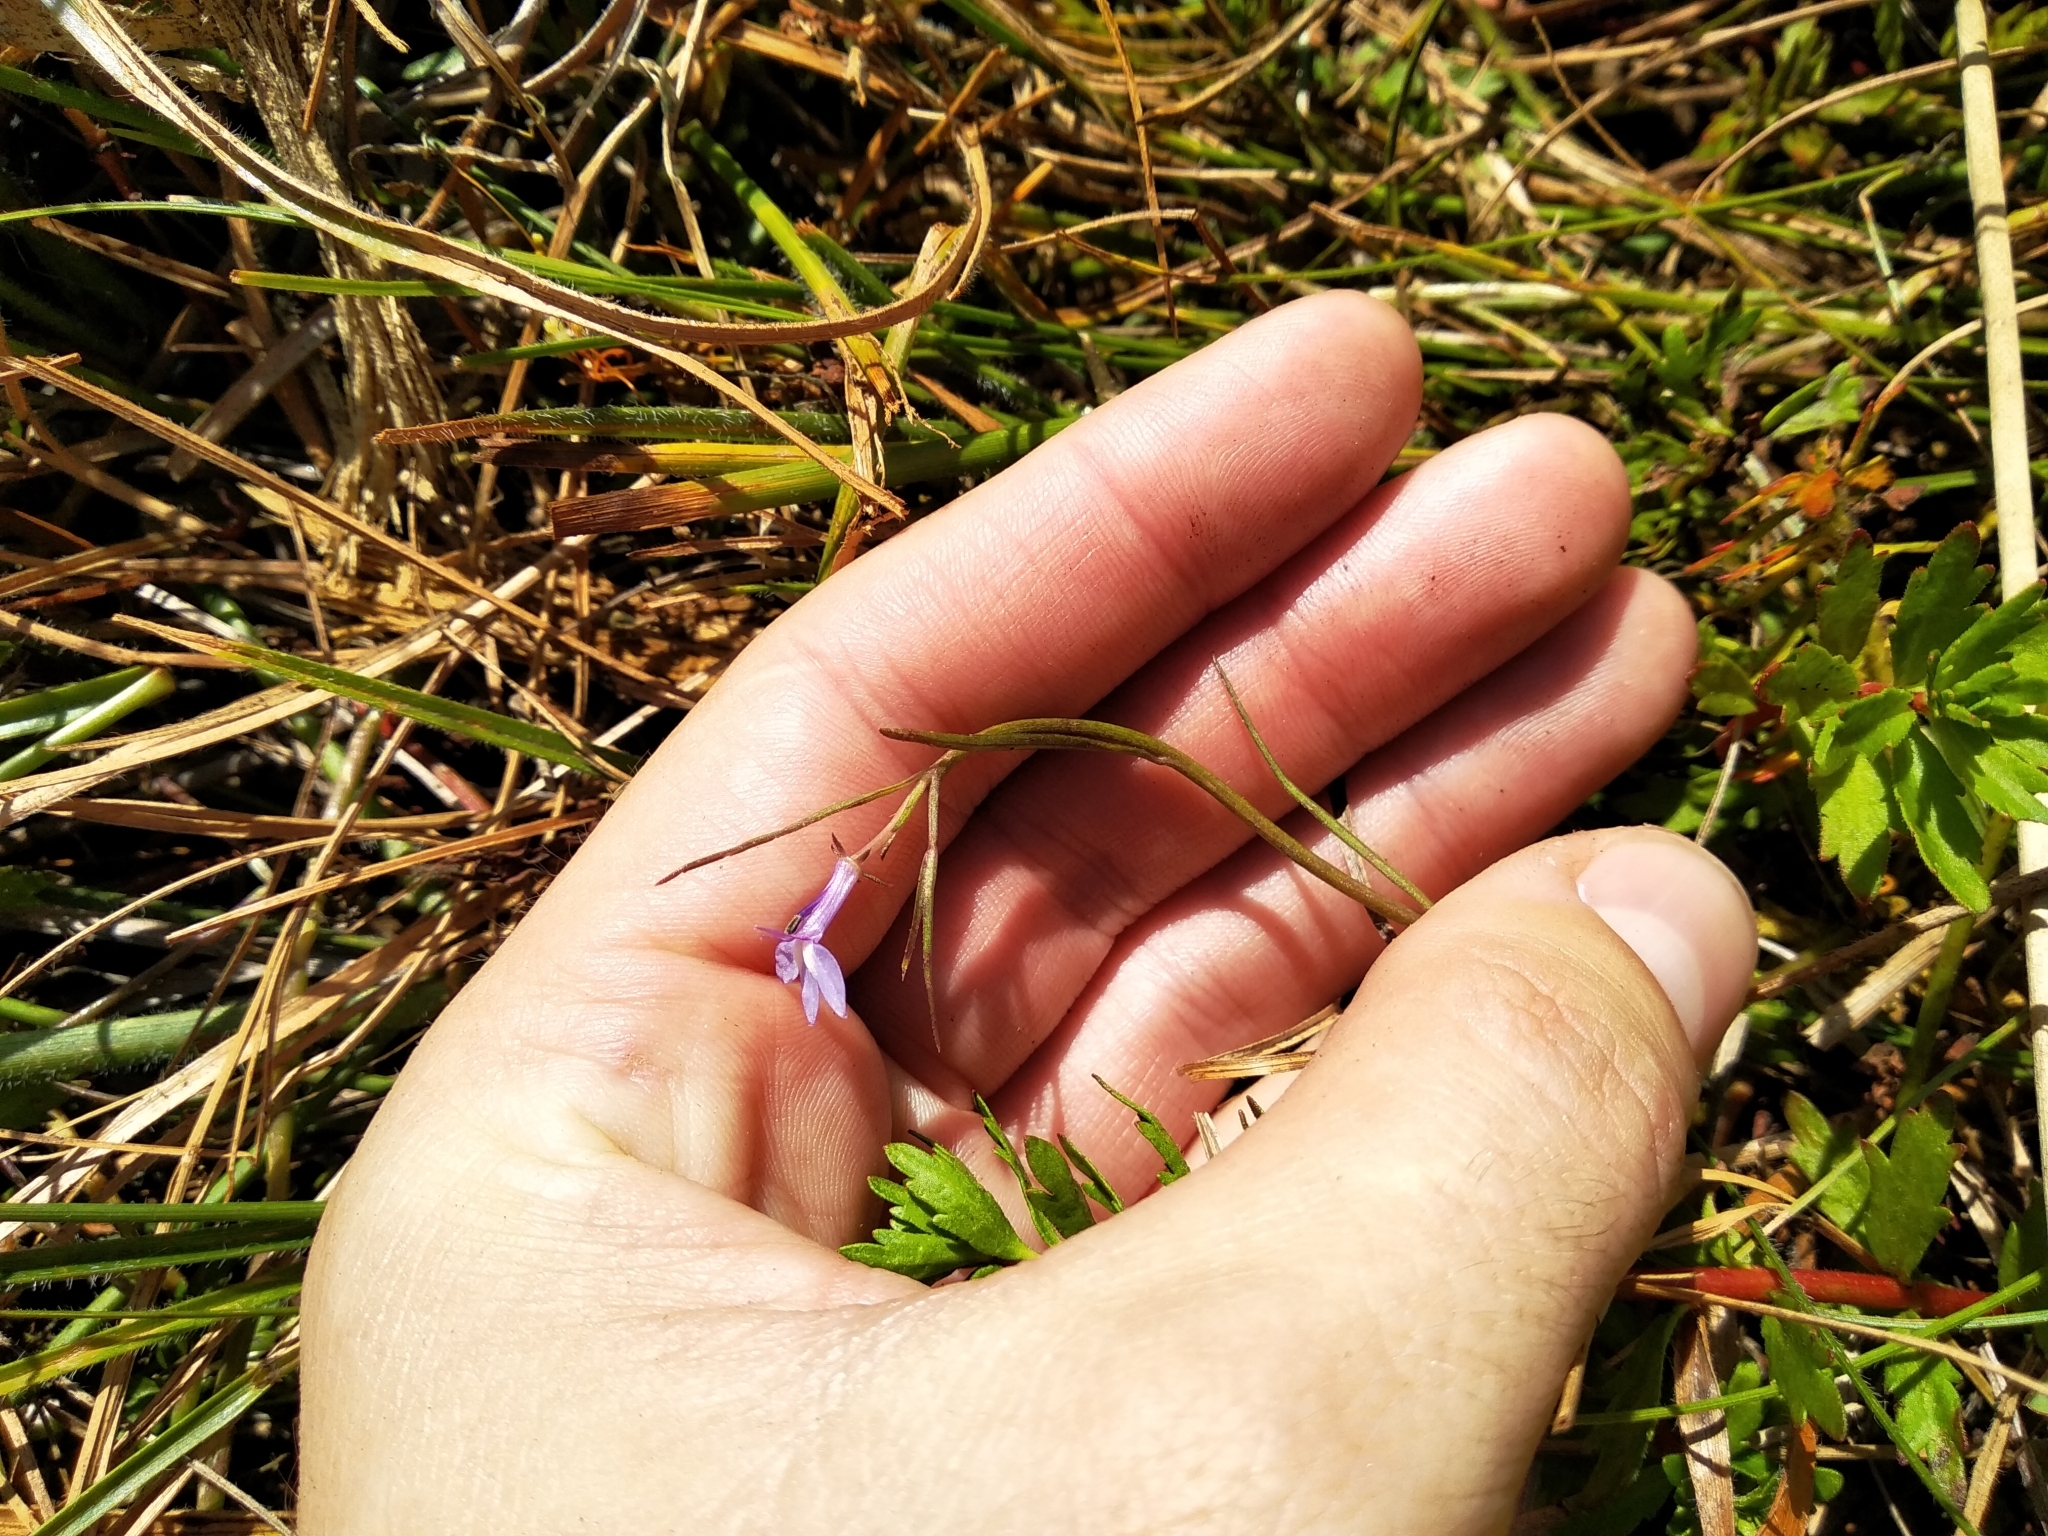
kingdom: Plantae
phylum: Tracheophyta
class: Magnoliopsida
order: Asterales
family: Campanulaceae
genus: Grammatotheca
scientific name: Grammatotheca bergiana
